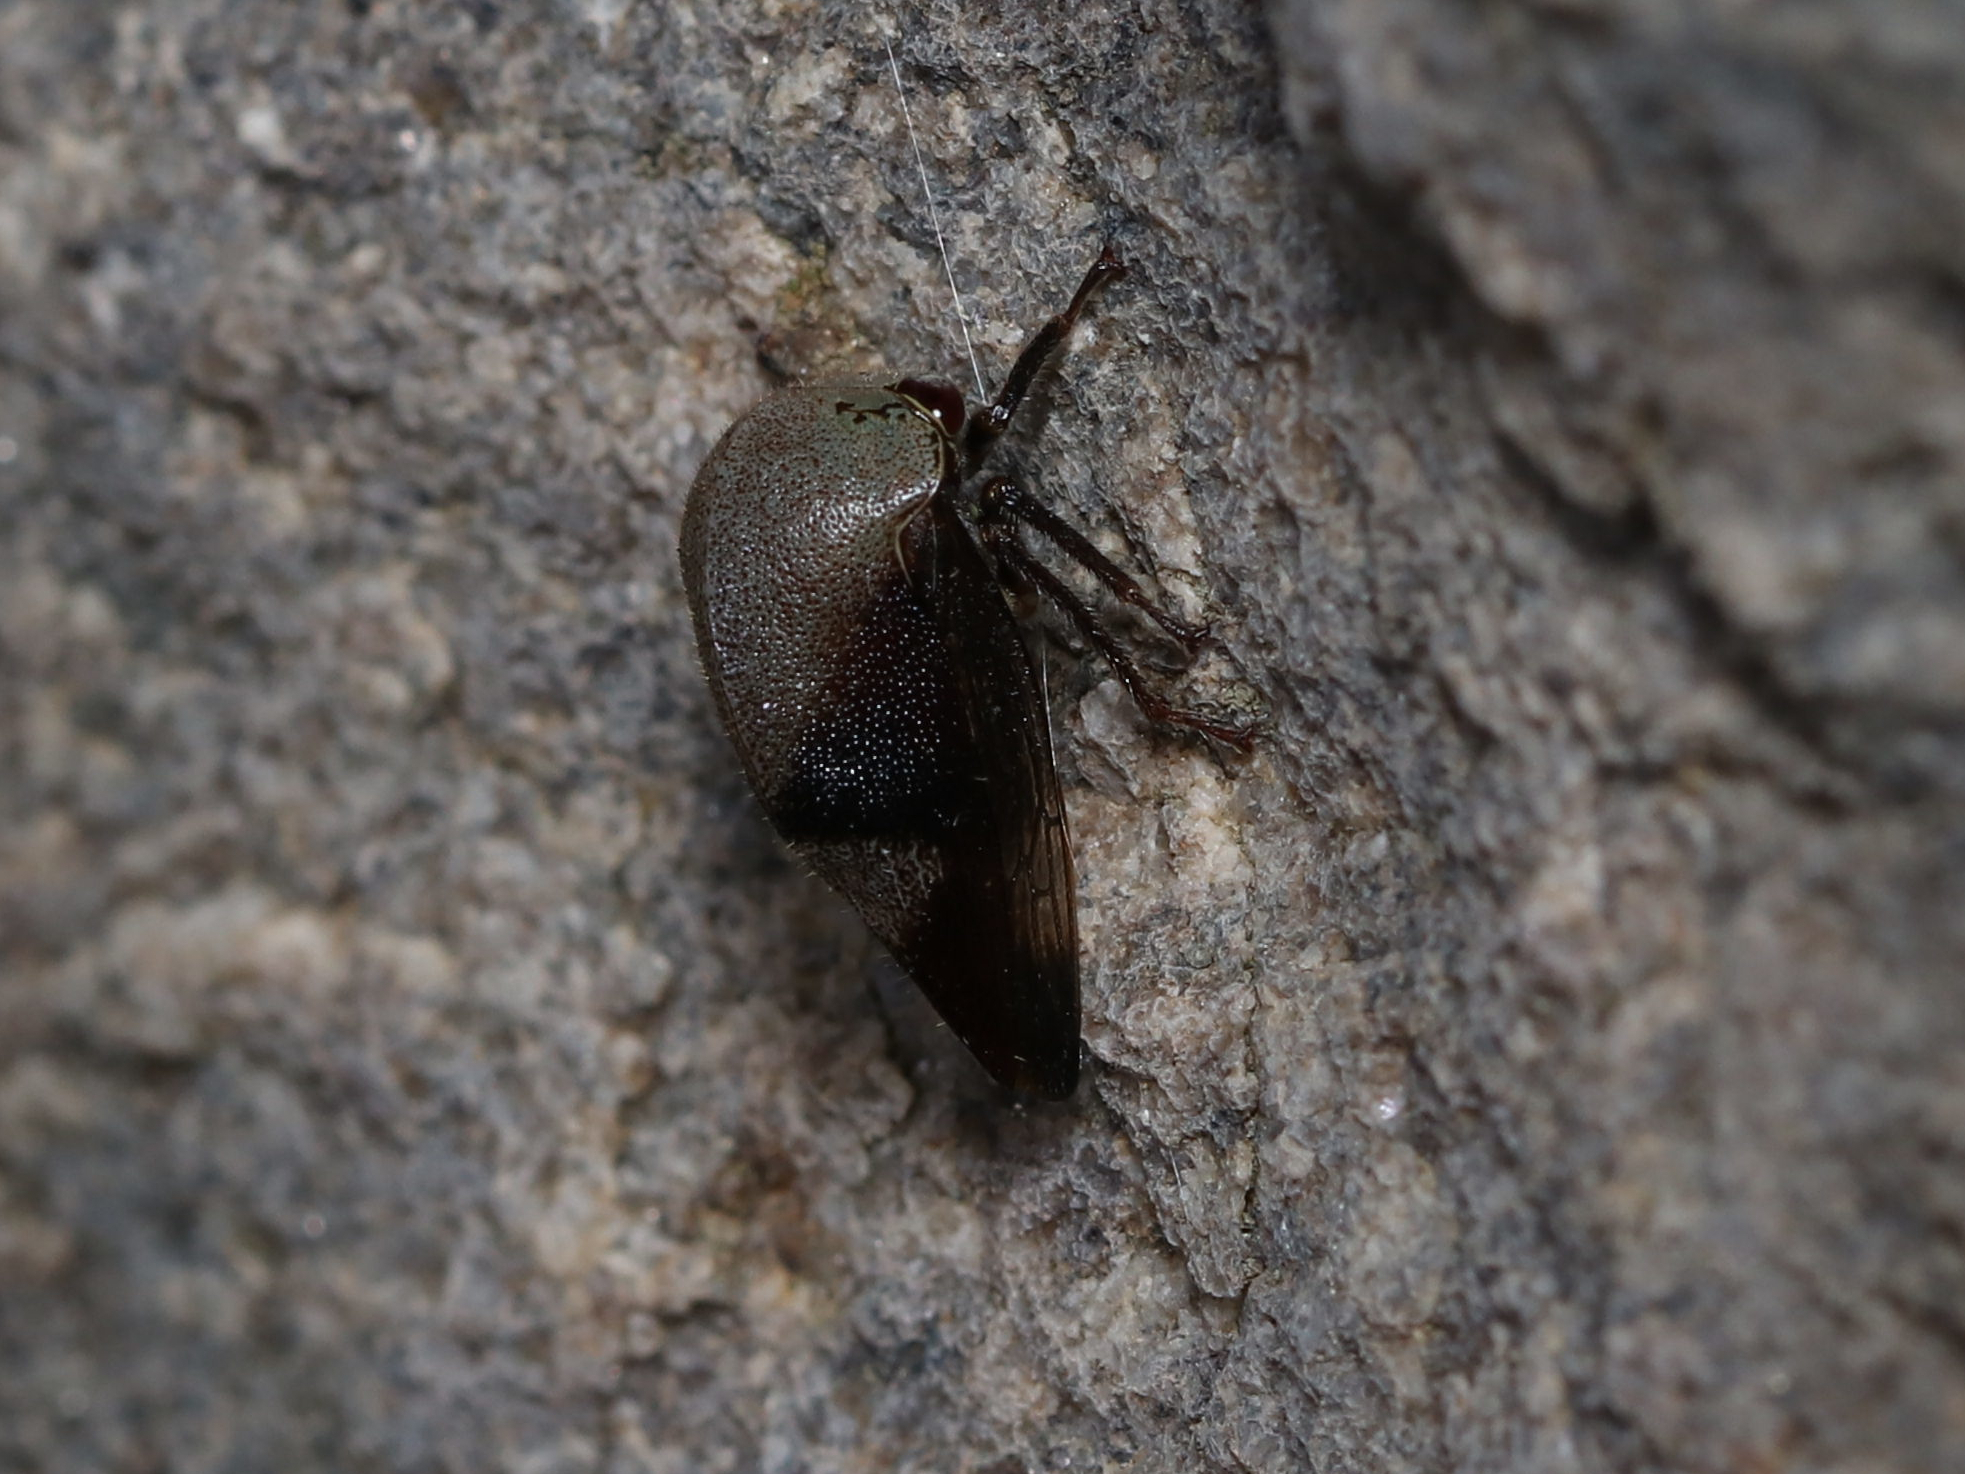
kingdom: Animalia
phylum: Arthropoda
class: Insecta
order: Hemiptera
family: Membracidae
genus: Carynota
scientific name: Carynota mera
